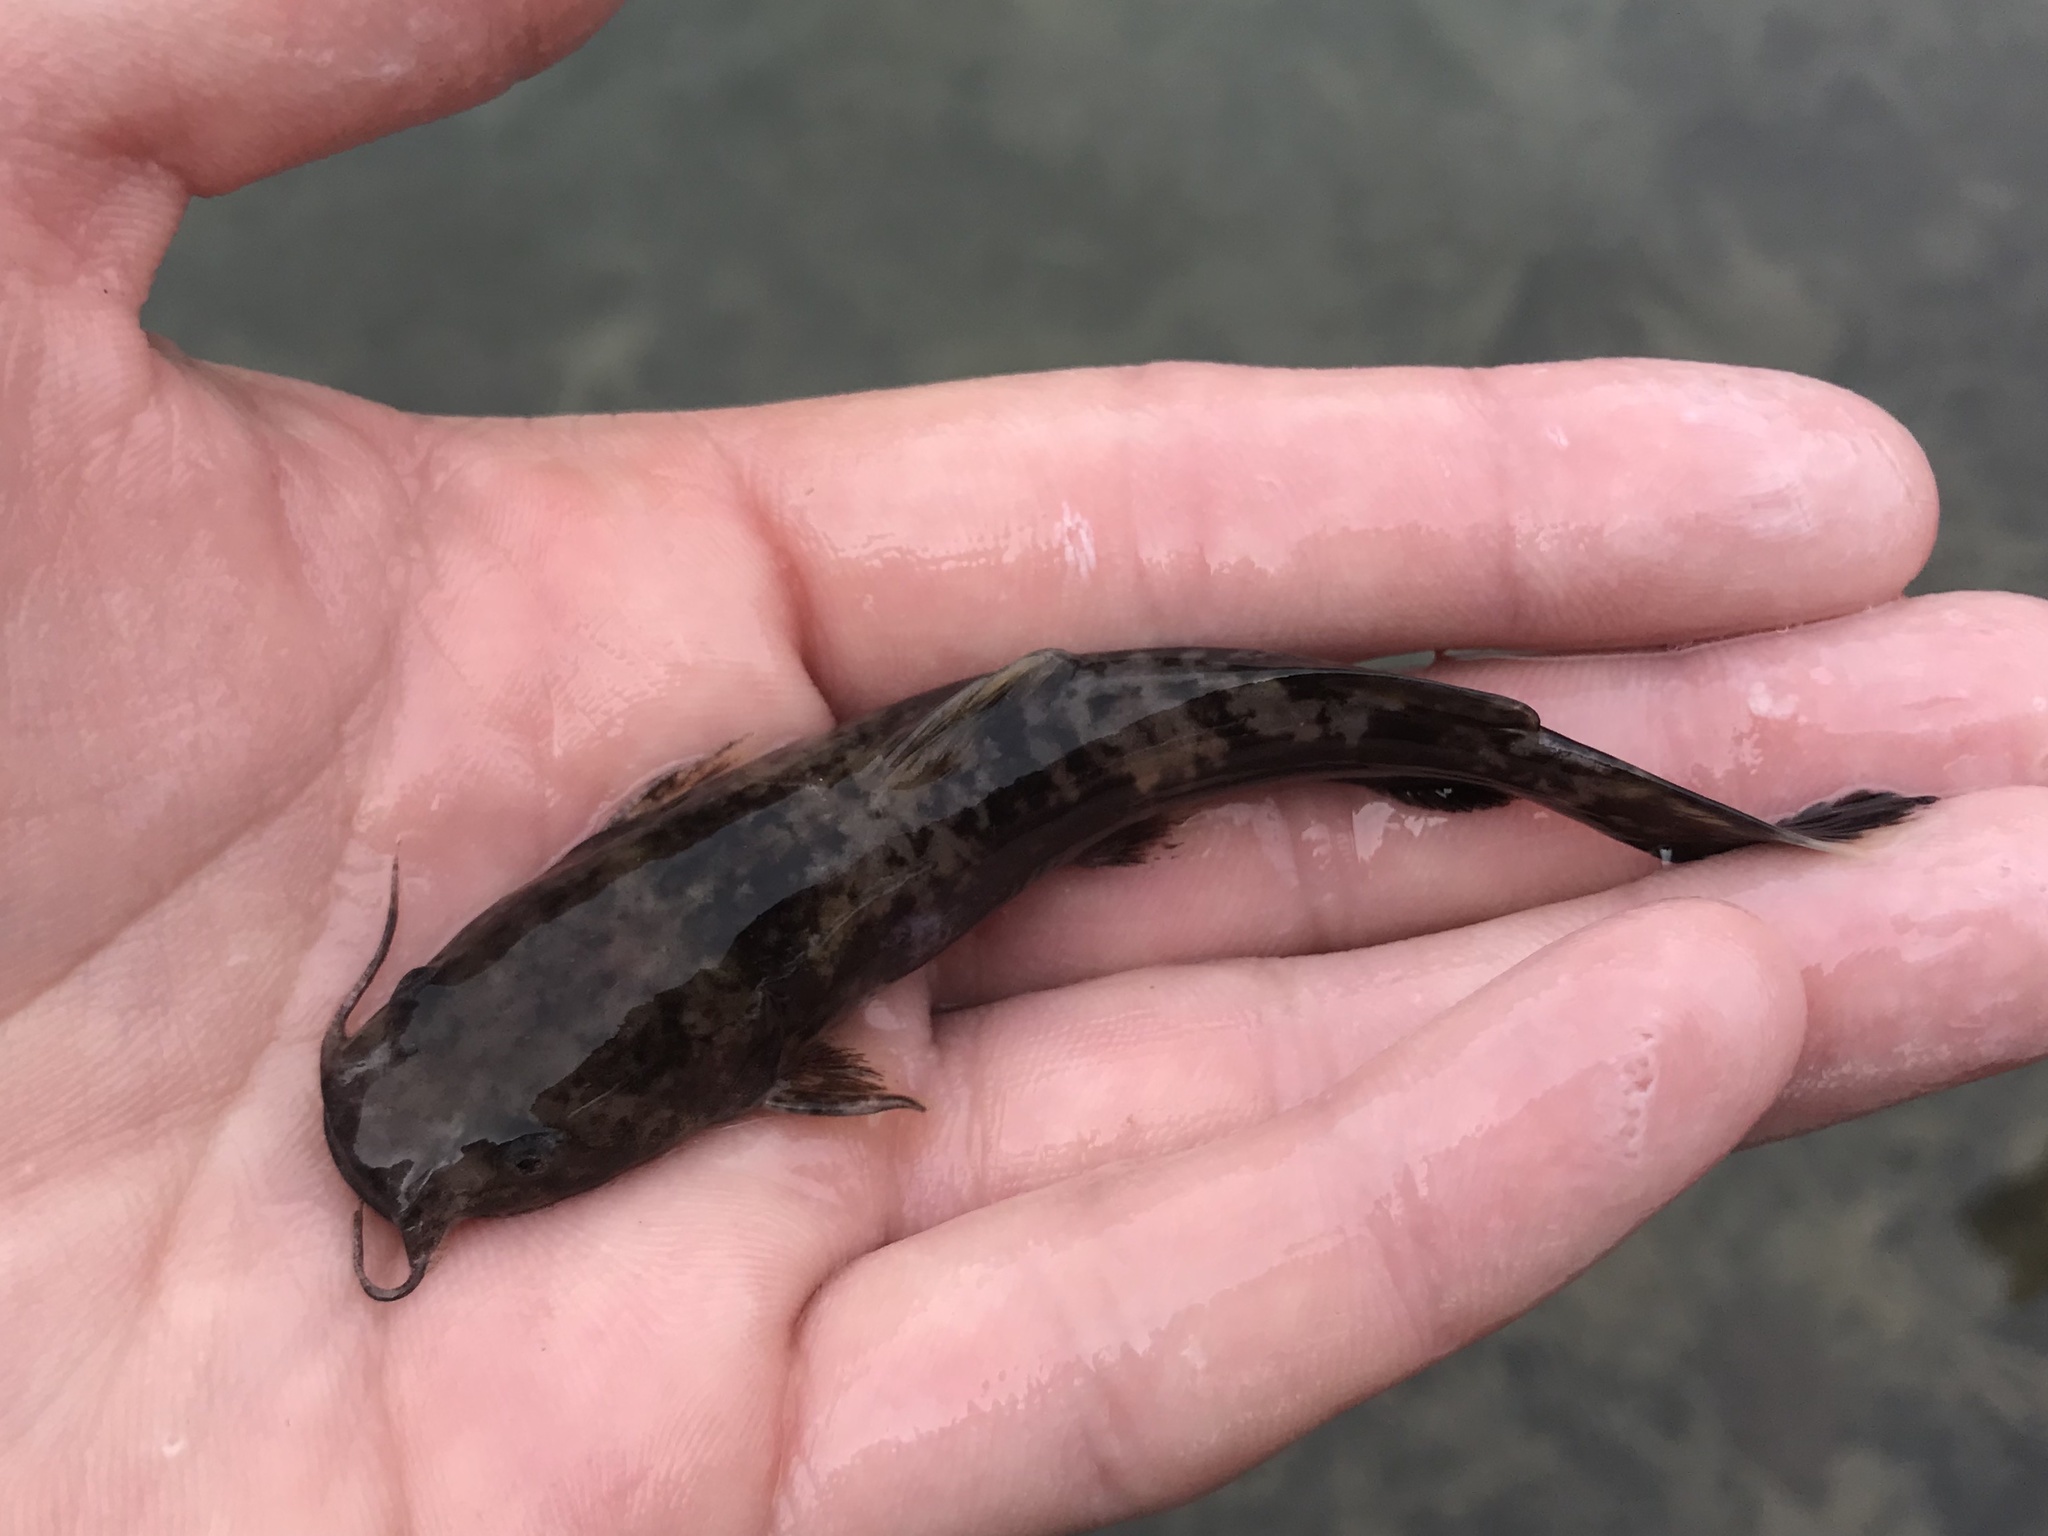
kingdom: Animalia
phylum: Chordata
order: Siluriformes
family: Ictaluridae
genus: Pylodictis
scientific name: Pylodictis olivaris
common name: Flathead catfish
